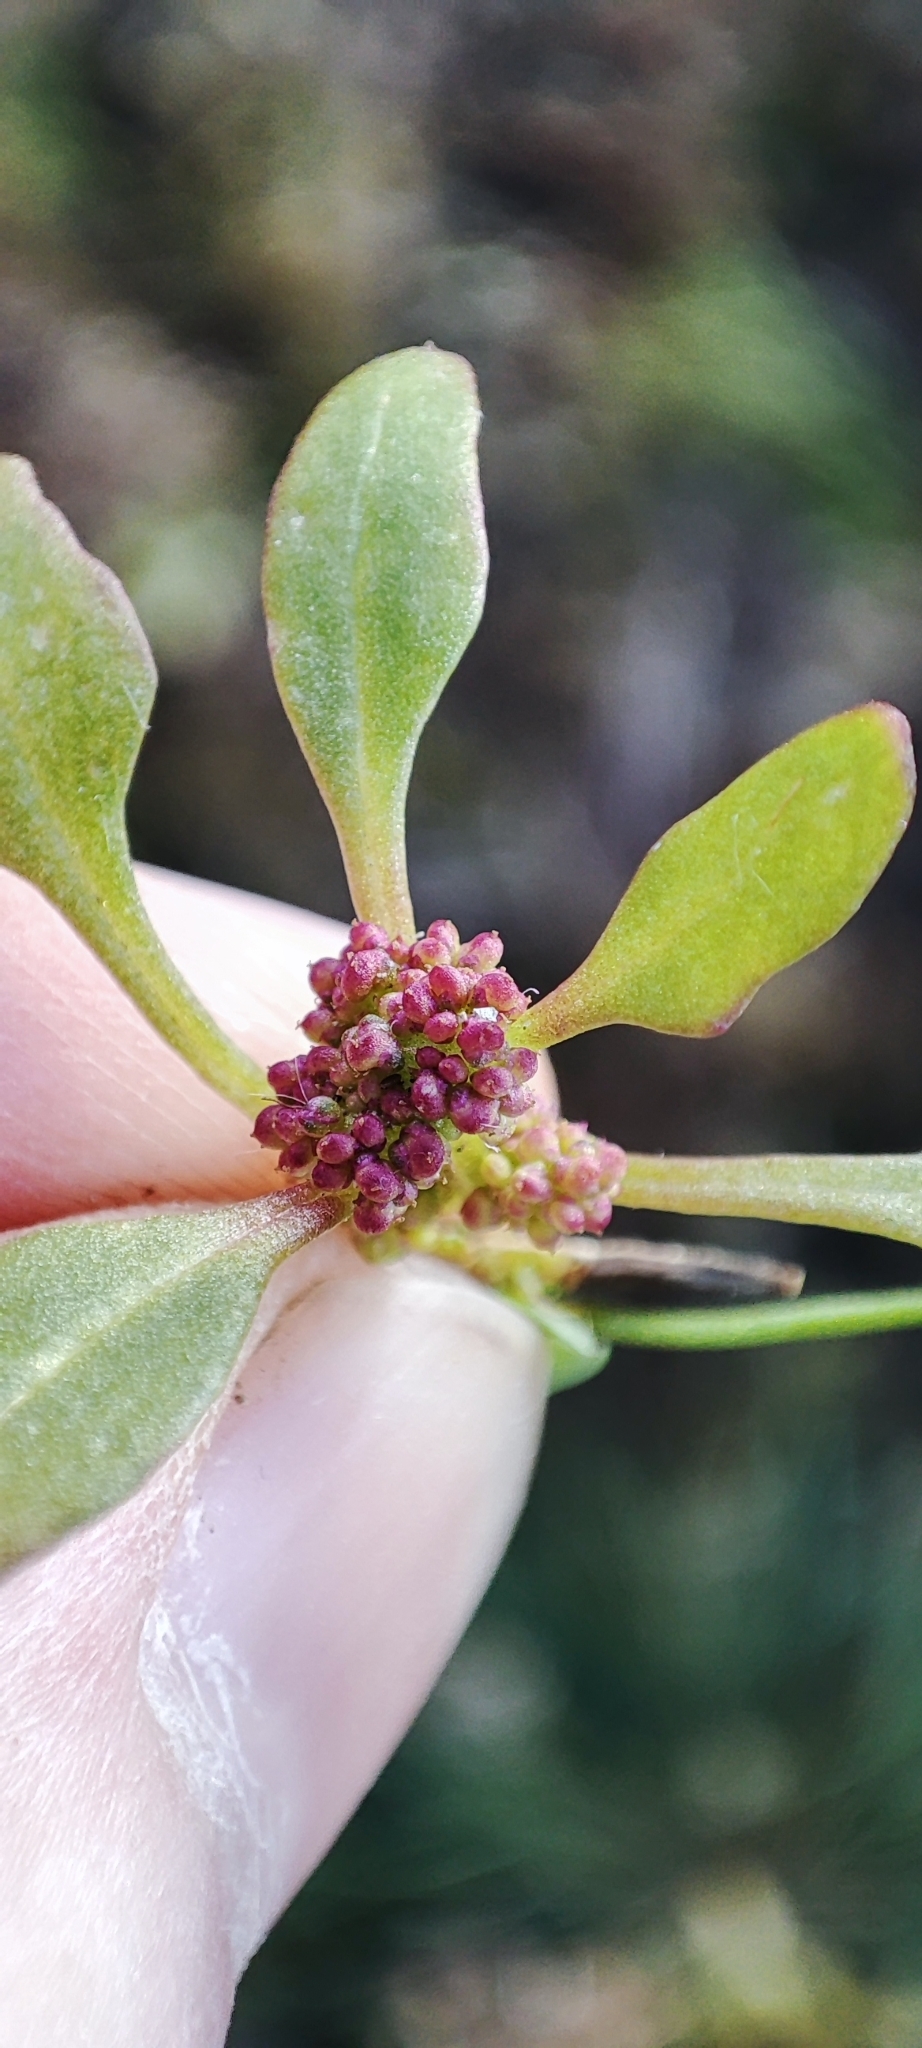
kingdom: Plantae
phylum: Tracheophyta
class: Magnoliopsida
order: Caryophyllales
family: Amaranthaceae
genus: Oxybasis
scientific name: Oxybasis rubra
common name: Red goosefoot
